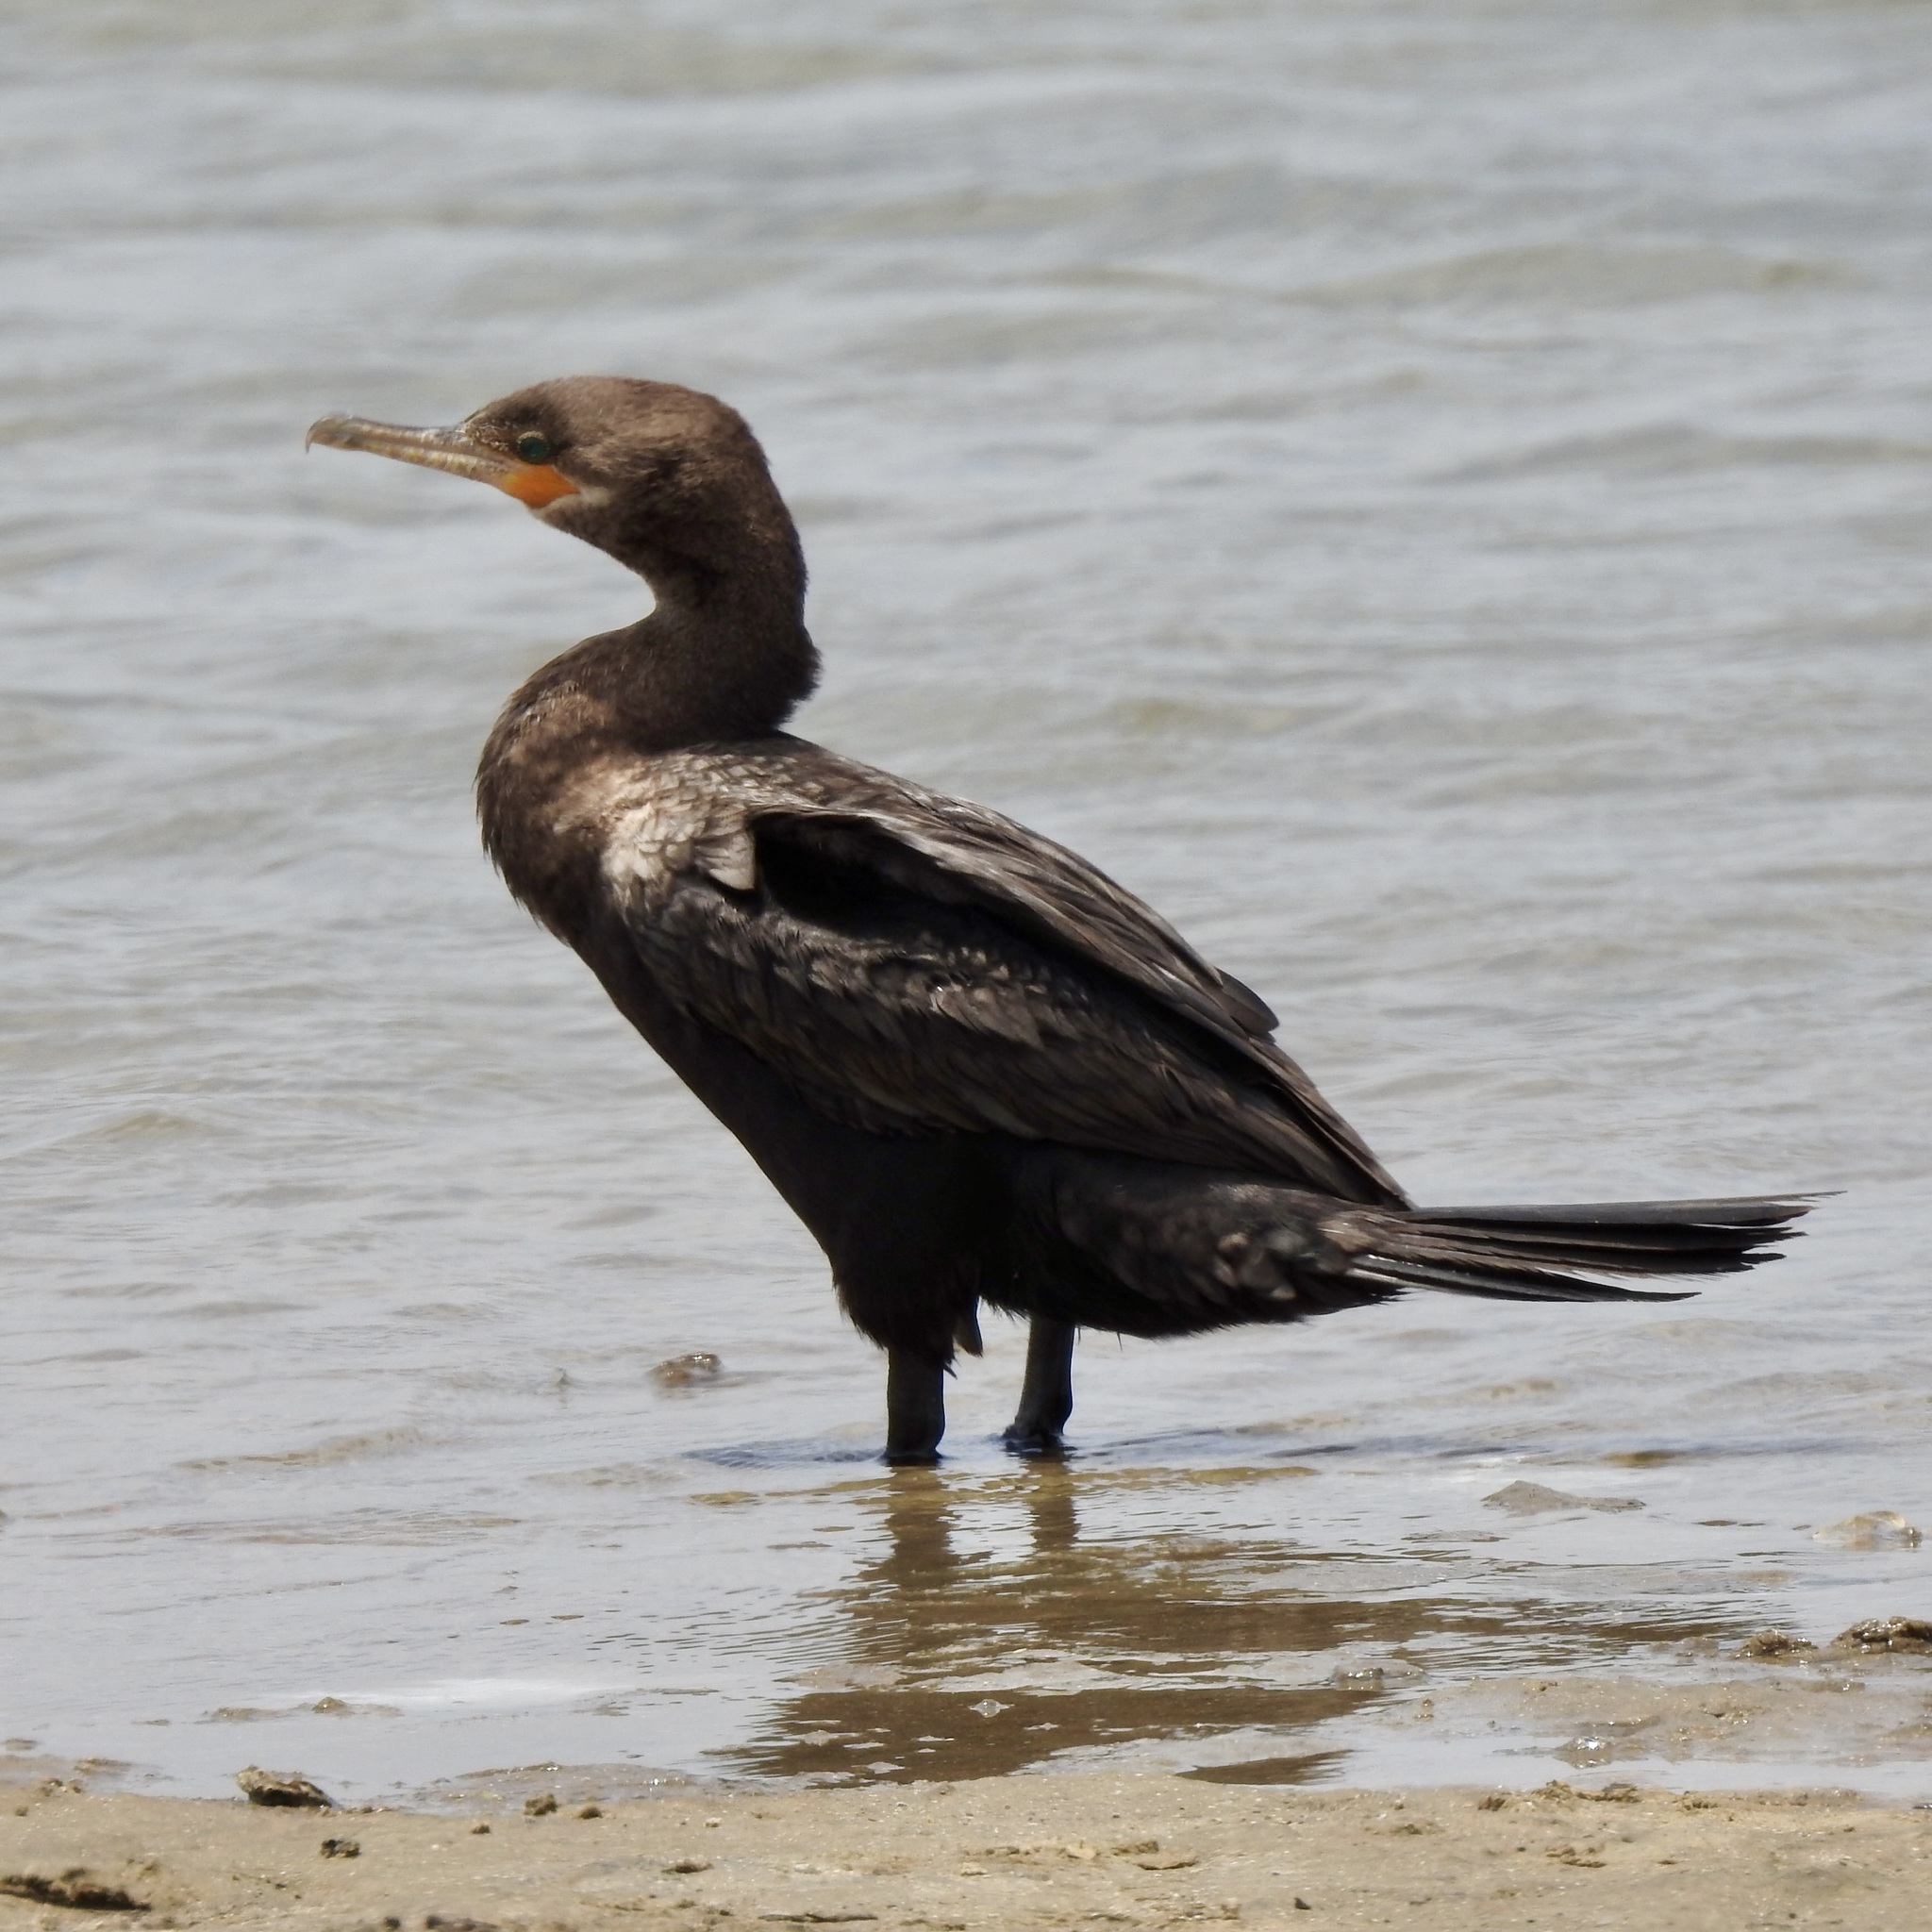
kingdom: Animalia
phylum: Chordata
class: Aves
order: Suliformes
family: Phalacrocoracidae
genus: Phalacrocorax
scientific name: Phalacrocorax brasilianus
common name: Neotropic cormorant
